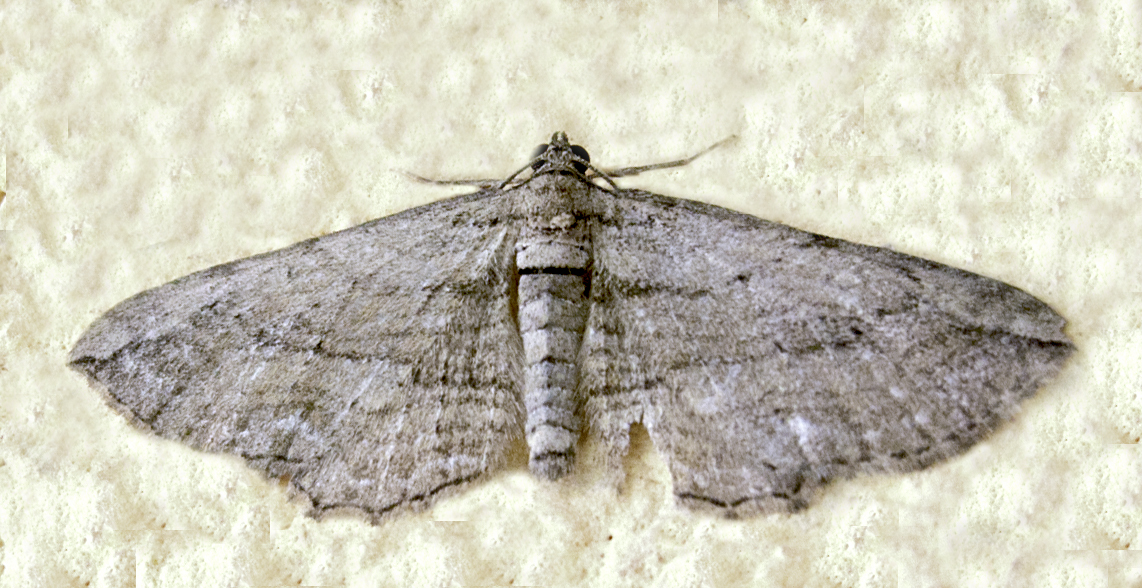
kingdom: Animalia
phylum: Arthropoda
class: Insecta
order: Lepidoptera
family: Geometridae
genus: Horisme
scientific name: Horisme tersata
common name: Fern
